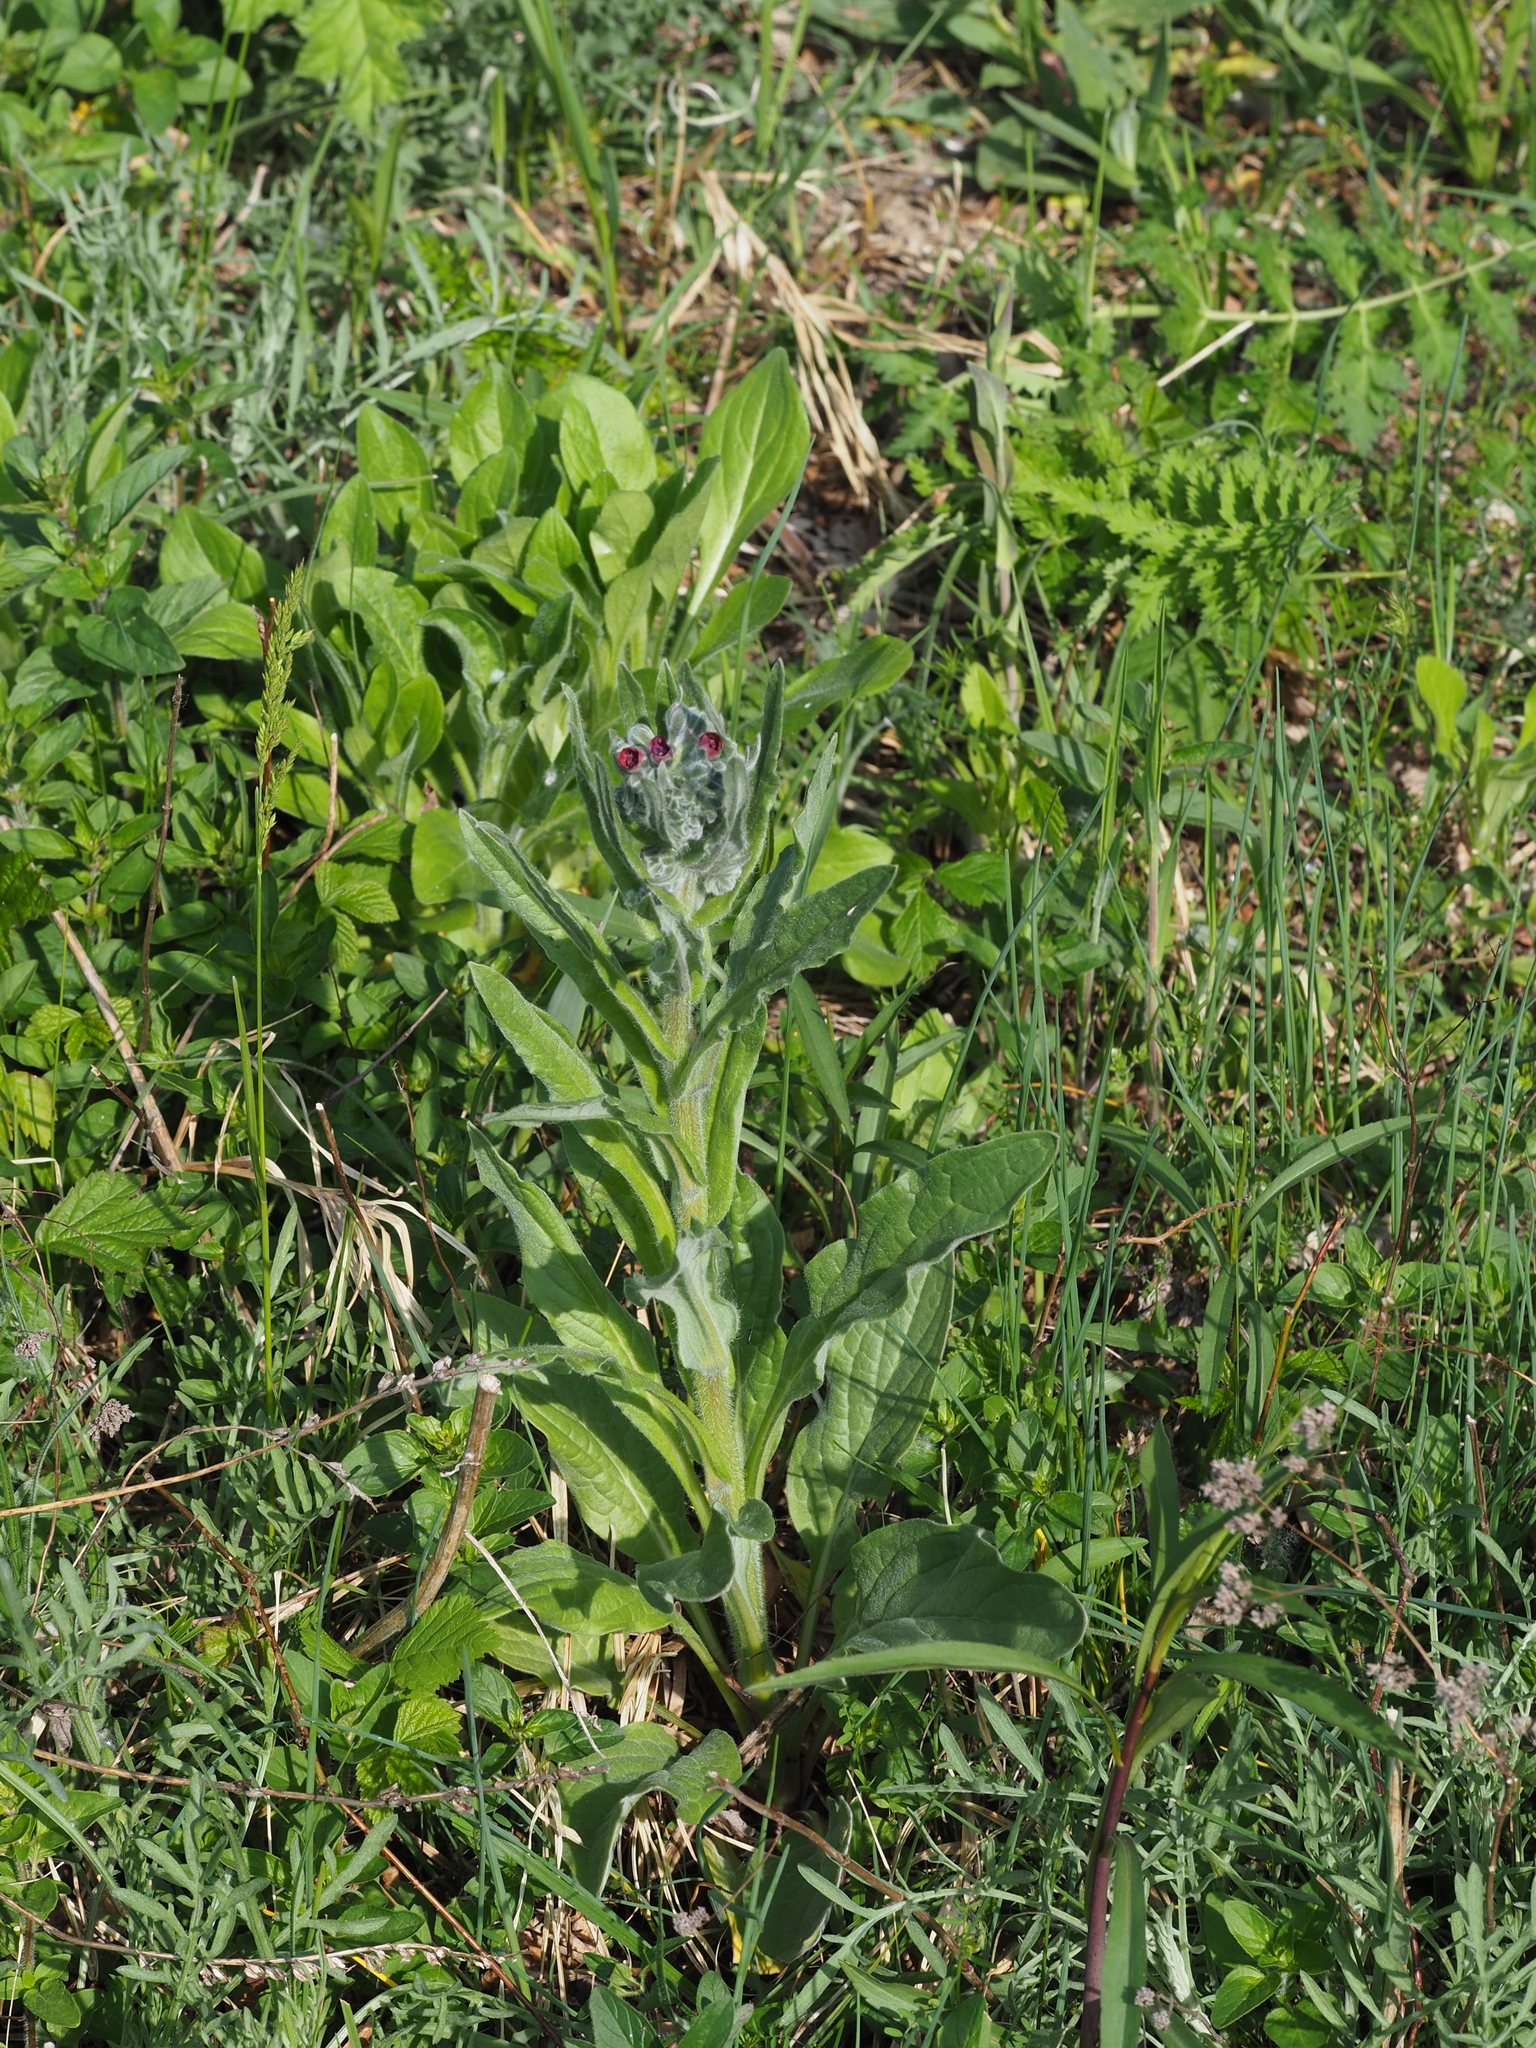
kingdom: Plantae
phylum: Tracheophyta
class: Magnoliopsida
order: Boraginales
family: Boraginaceae
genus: Cynoglossum
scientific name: Cynoglossum officinale
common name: Hound's-tongue
